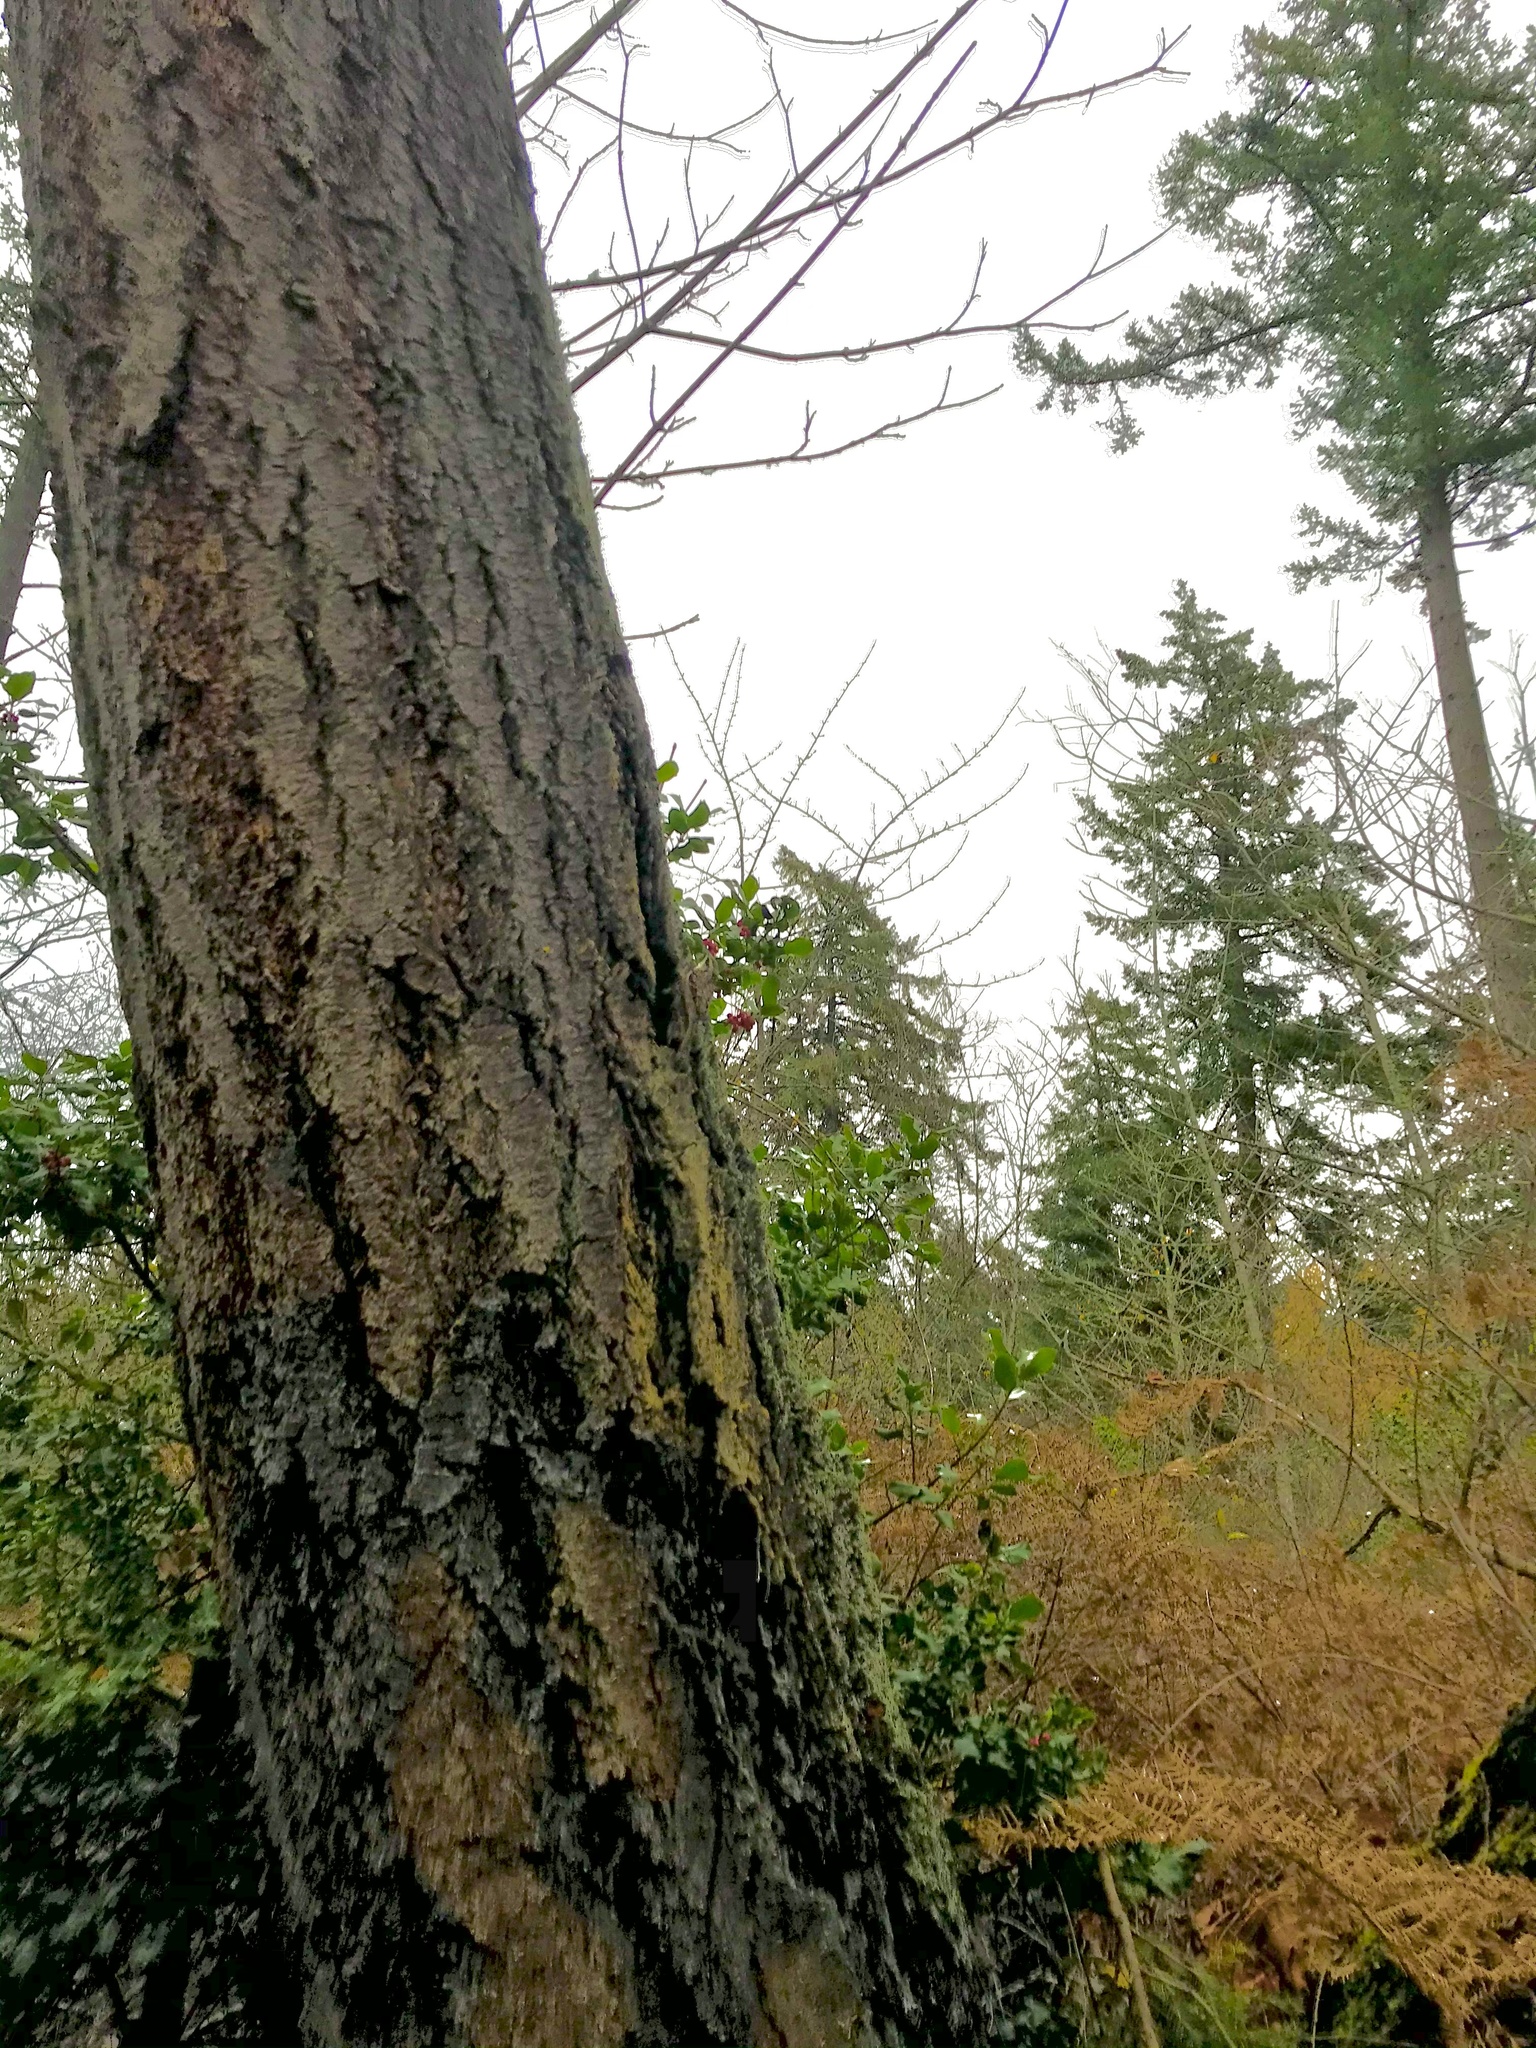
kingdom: Plantae
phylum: Tracheophyta
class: Pinopsida
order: Pinales
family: Pinaceae
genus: Pseudotsuga
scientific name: Pseudotsuga menziesii
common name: Douglas fir
